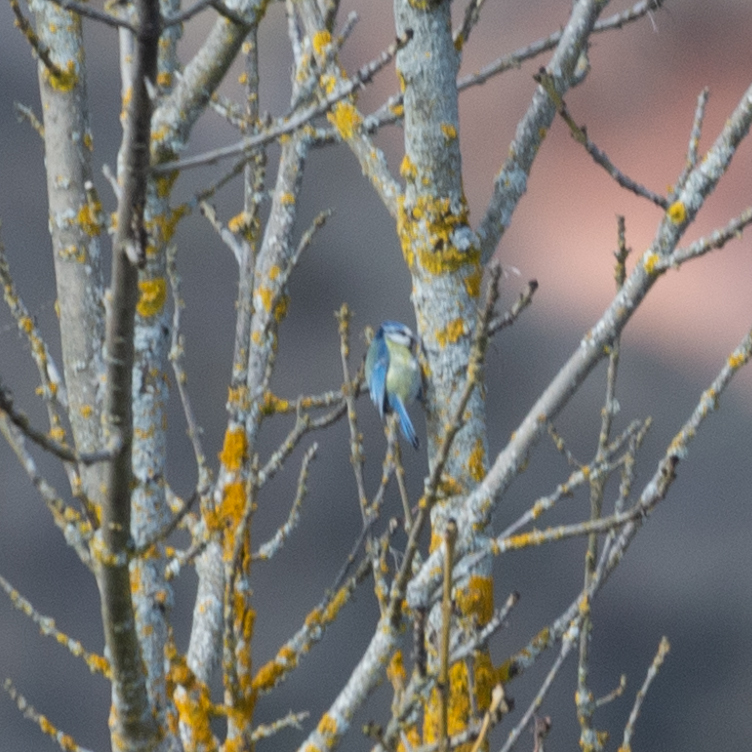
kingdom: Animalia
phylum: Chordata
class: Aves
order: Passeriformes
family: Paridae
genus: Cyanistes
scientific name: Cyanistes caeruleus
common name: Eurasian blue tit
